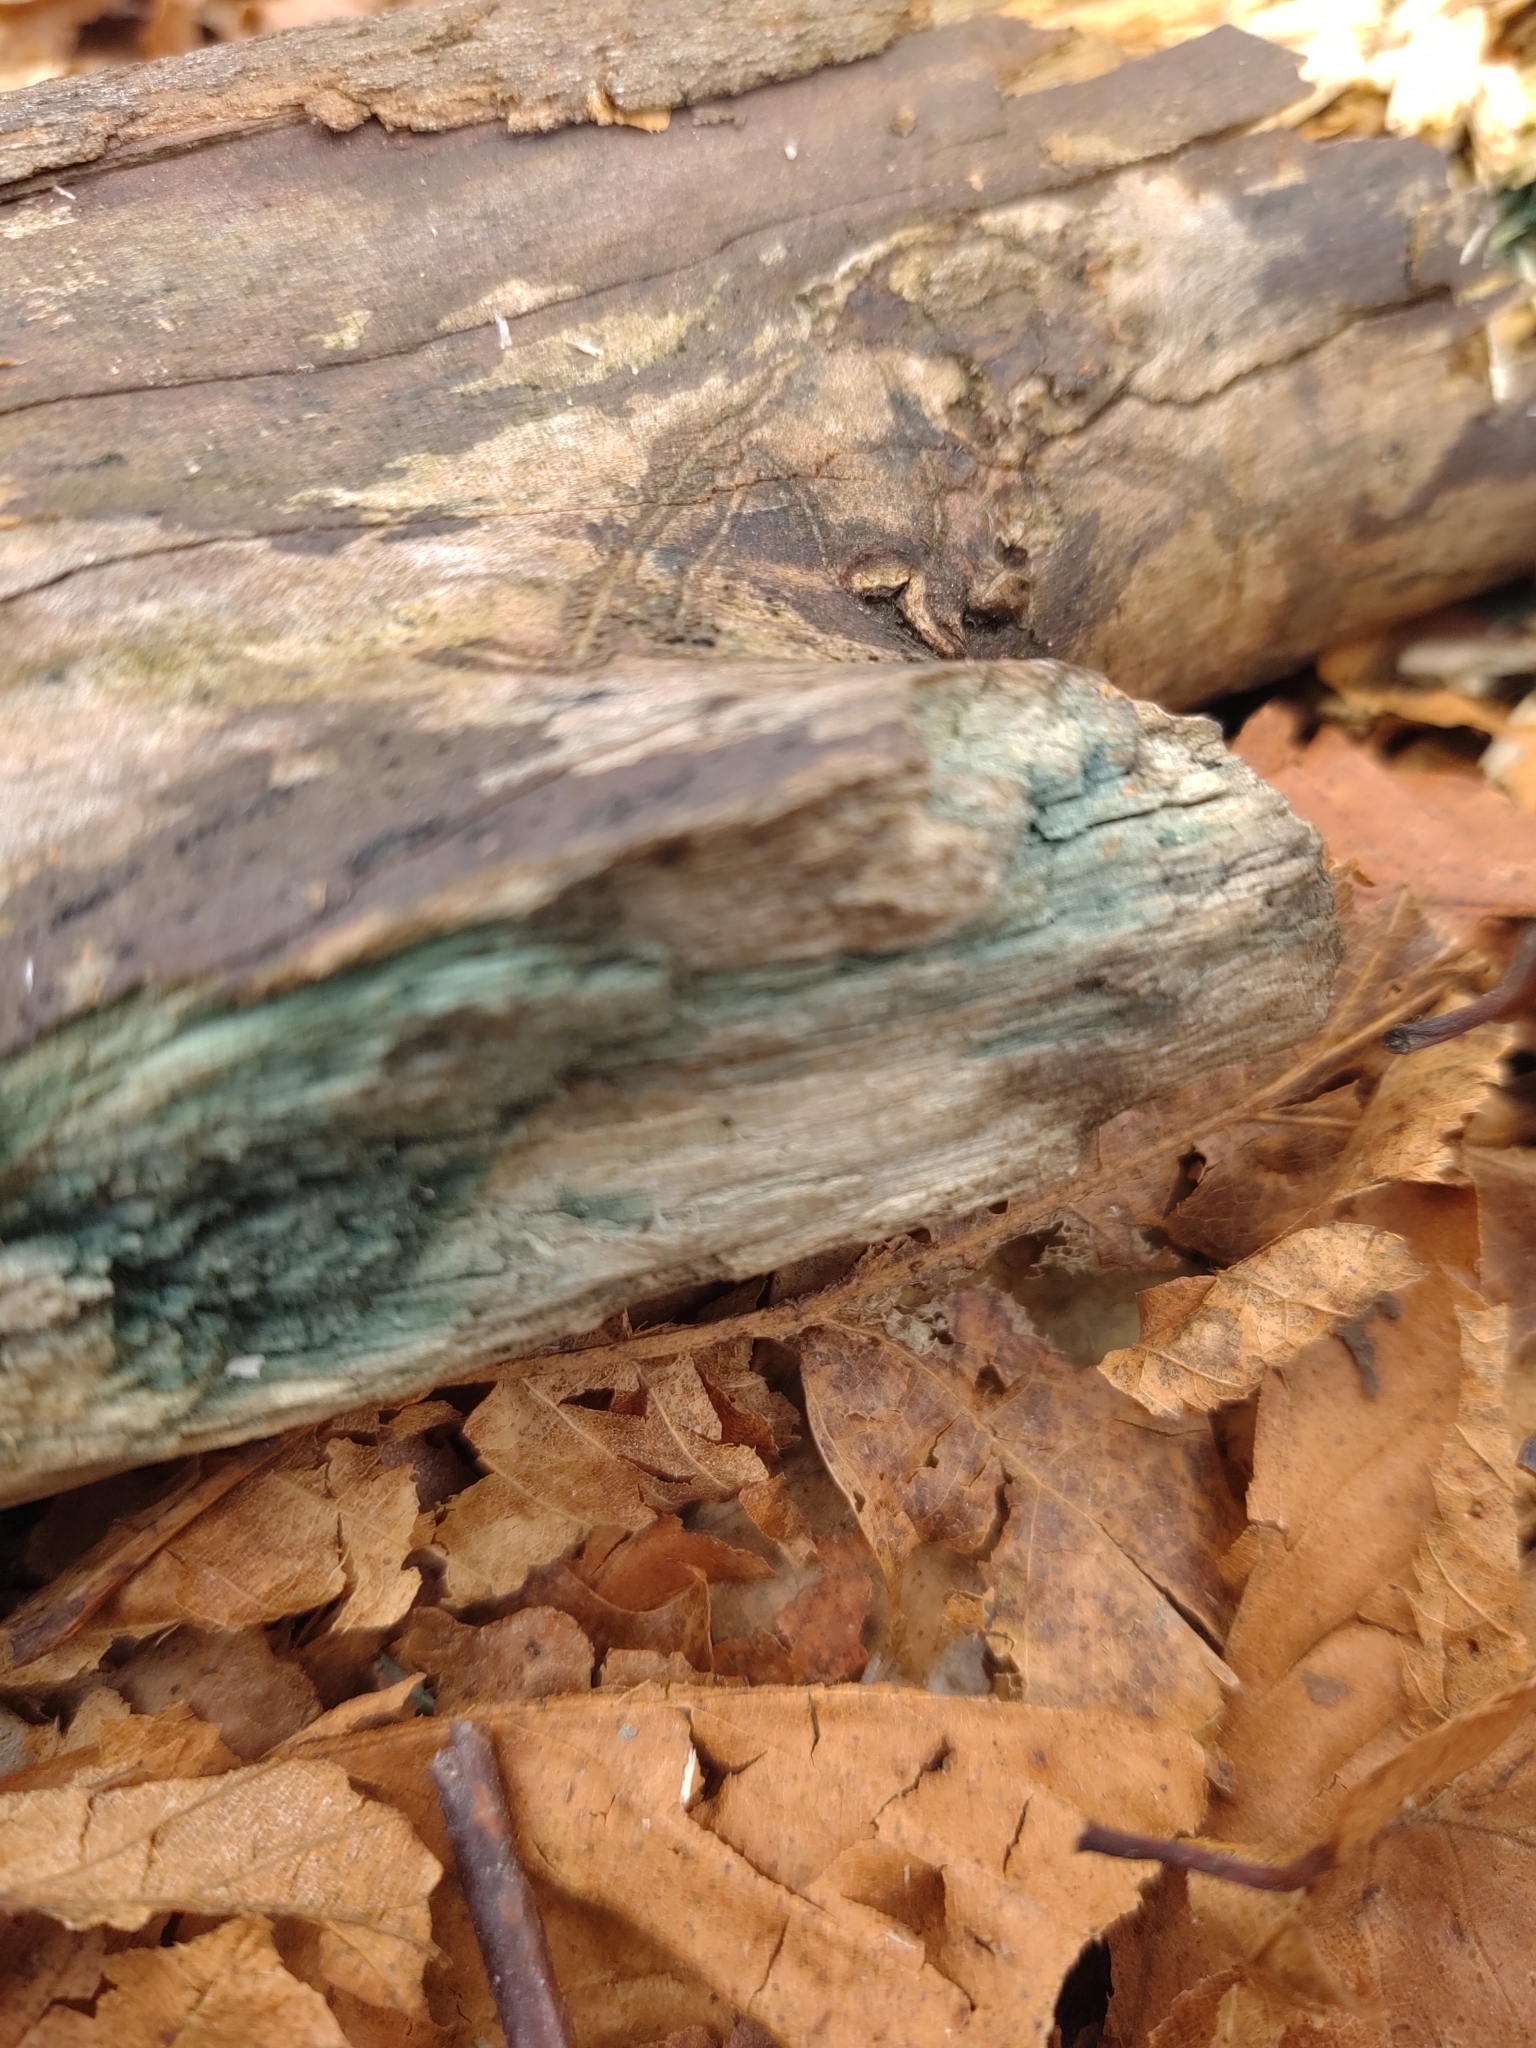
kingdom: Fungi
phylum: Ascomycota
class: Leotiomycetes
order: Helotiales
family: Chlorociboriaceae
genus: Chlorociboria
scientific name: Chlorociboria
